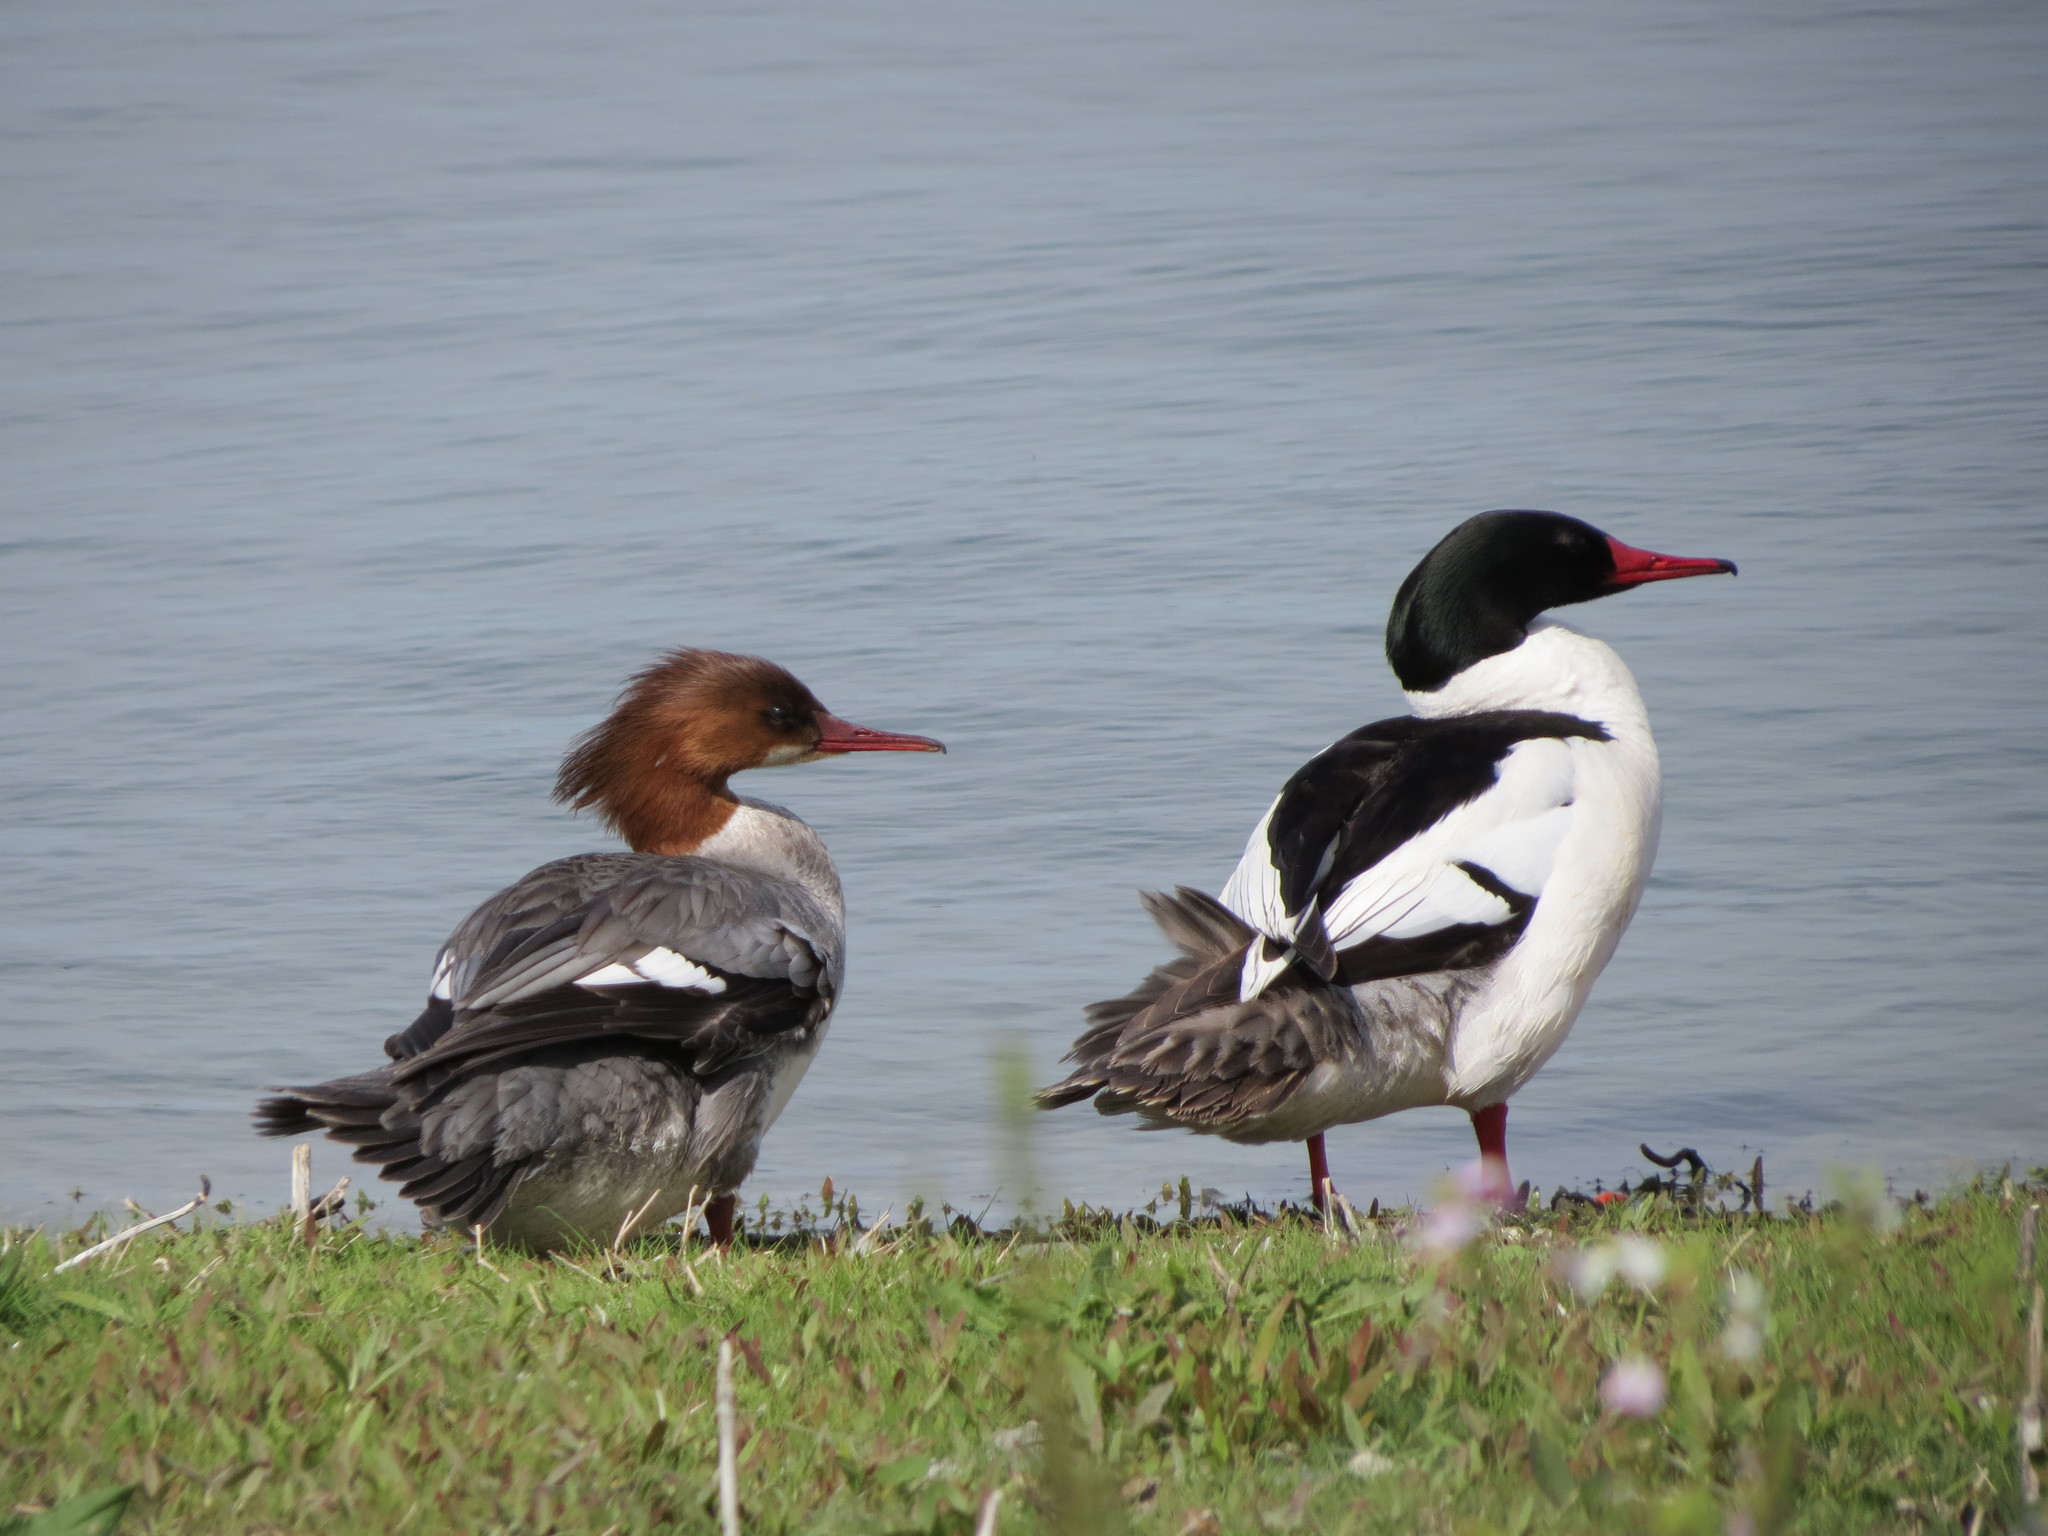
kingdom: Animalia
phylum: Chordata
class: Aves
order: Anseriformes
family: Anatidae
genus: Mergus
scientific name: Mergus merganser
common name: Common merganser
